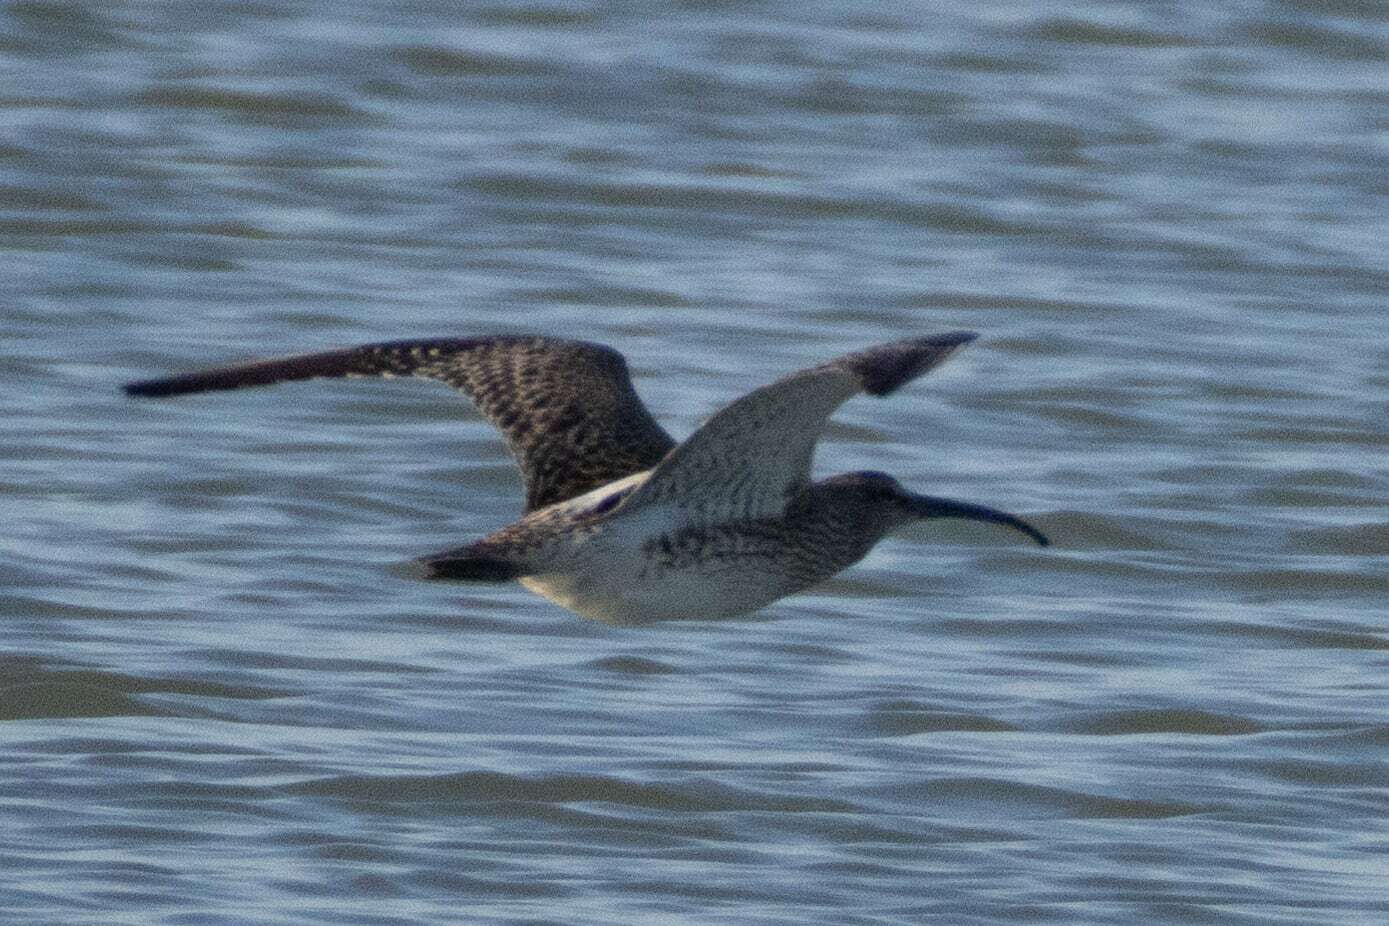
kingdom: Animalia
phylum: Chordata
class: Aves
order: Charadriiformes
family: Scolopacidae
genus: Numenius
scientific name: Numenius phaeopus
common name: Whimbrel
